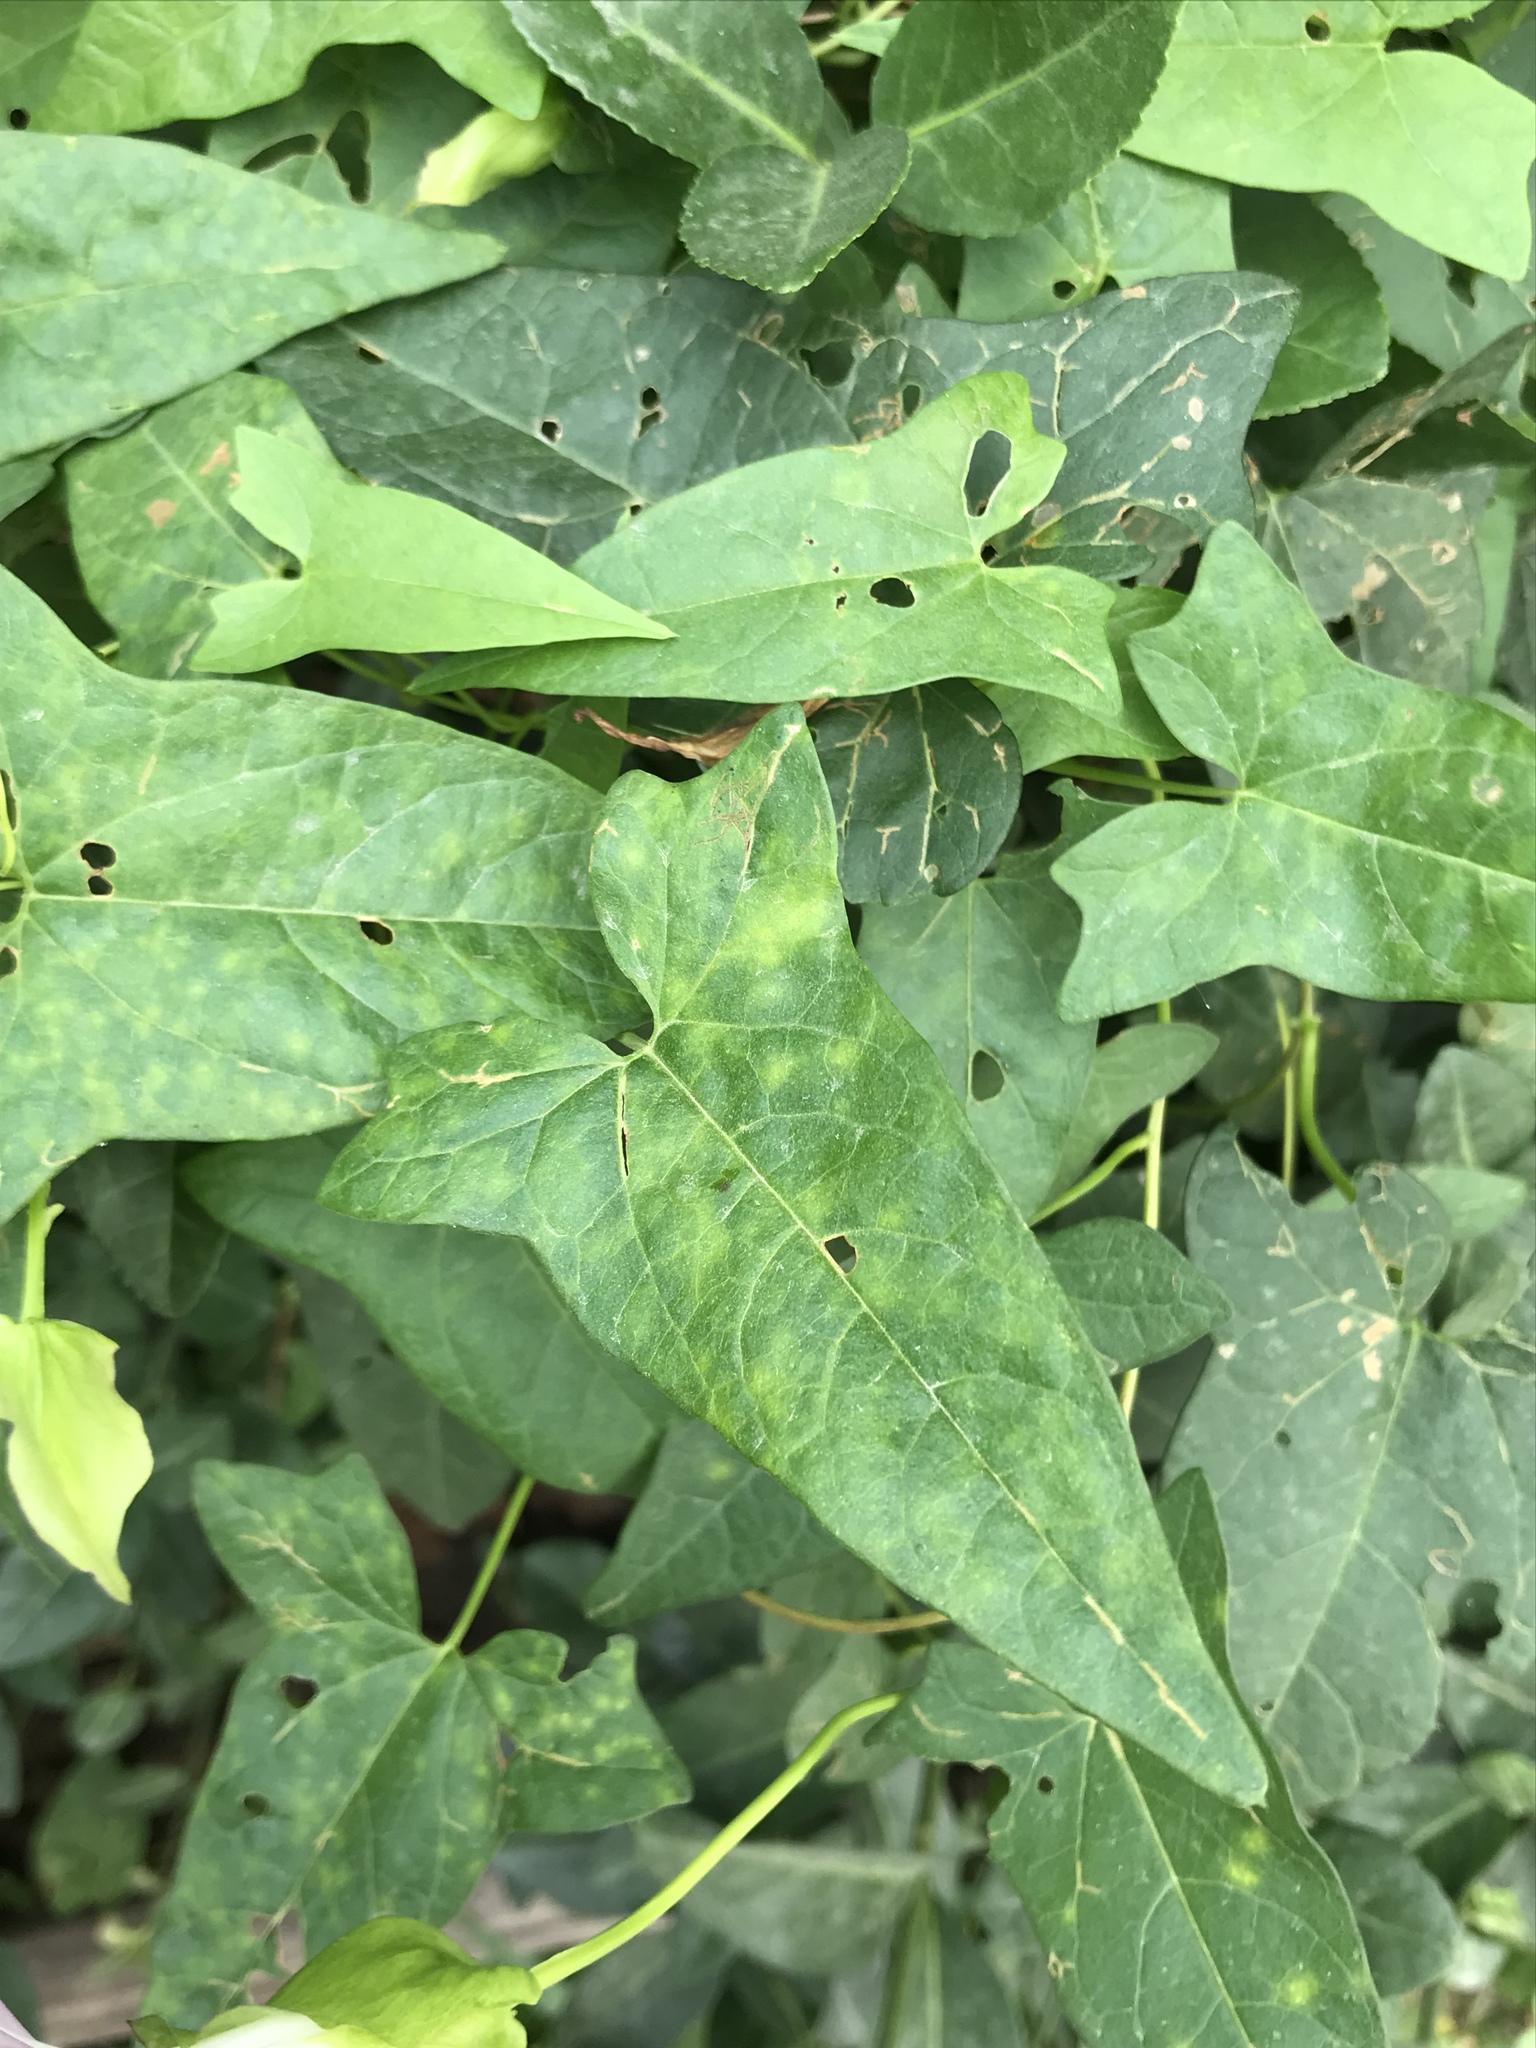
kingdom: Plantae
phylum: Tracheophyta
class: Magnoliopsida
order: Solanales
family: Convolvulaceae
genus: Calystegia
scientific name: Calystegia sepium
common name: Hedge bindweed
